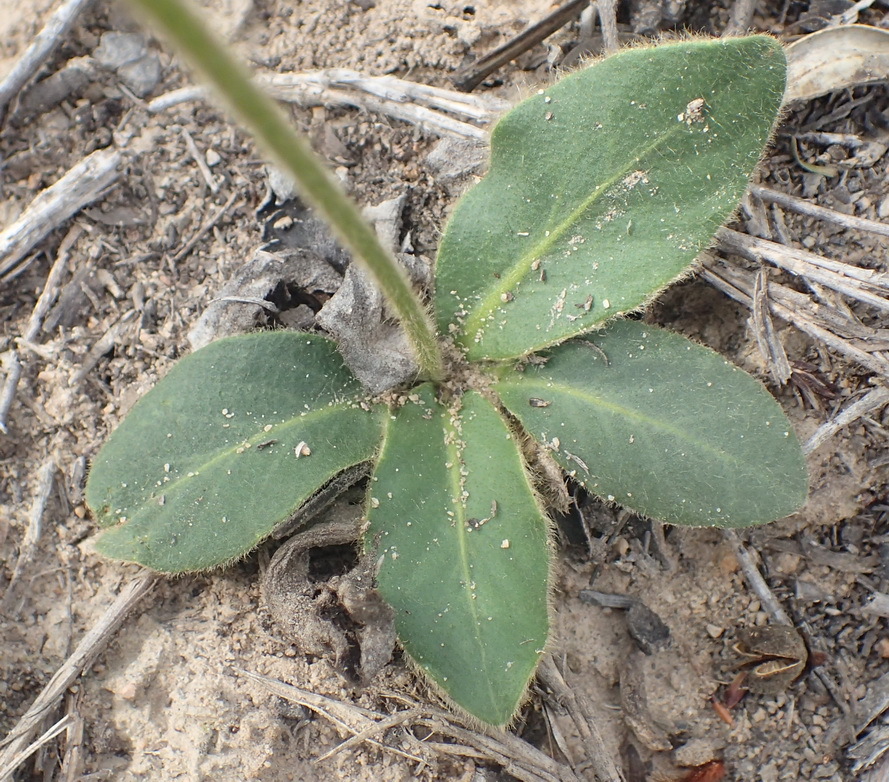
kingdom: Plantae
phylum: Tracheophyta
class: Magnoliopsida
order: Asterales
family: Asteraceae
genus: Piloselloides
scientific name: Piloselloides hirsuta
